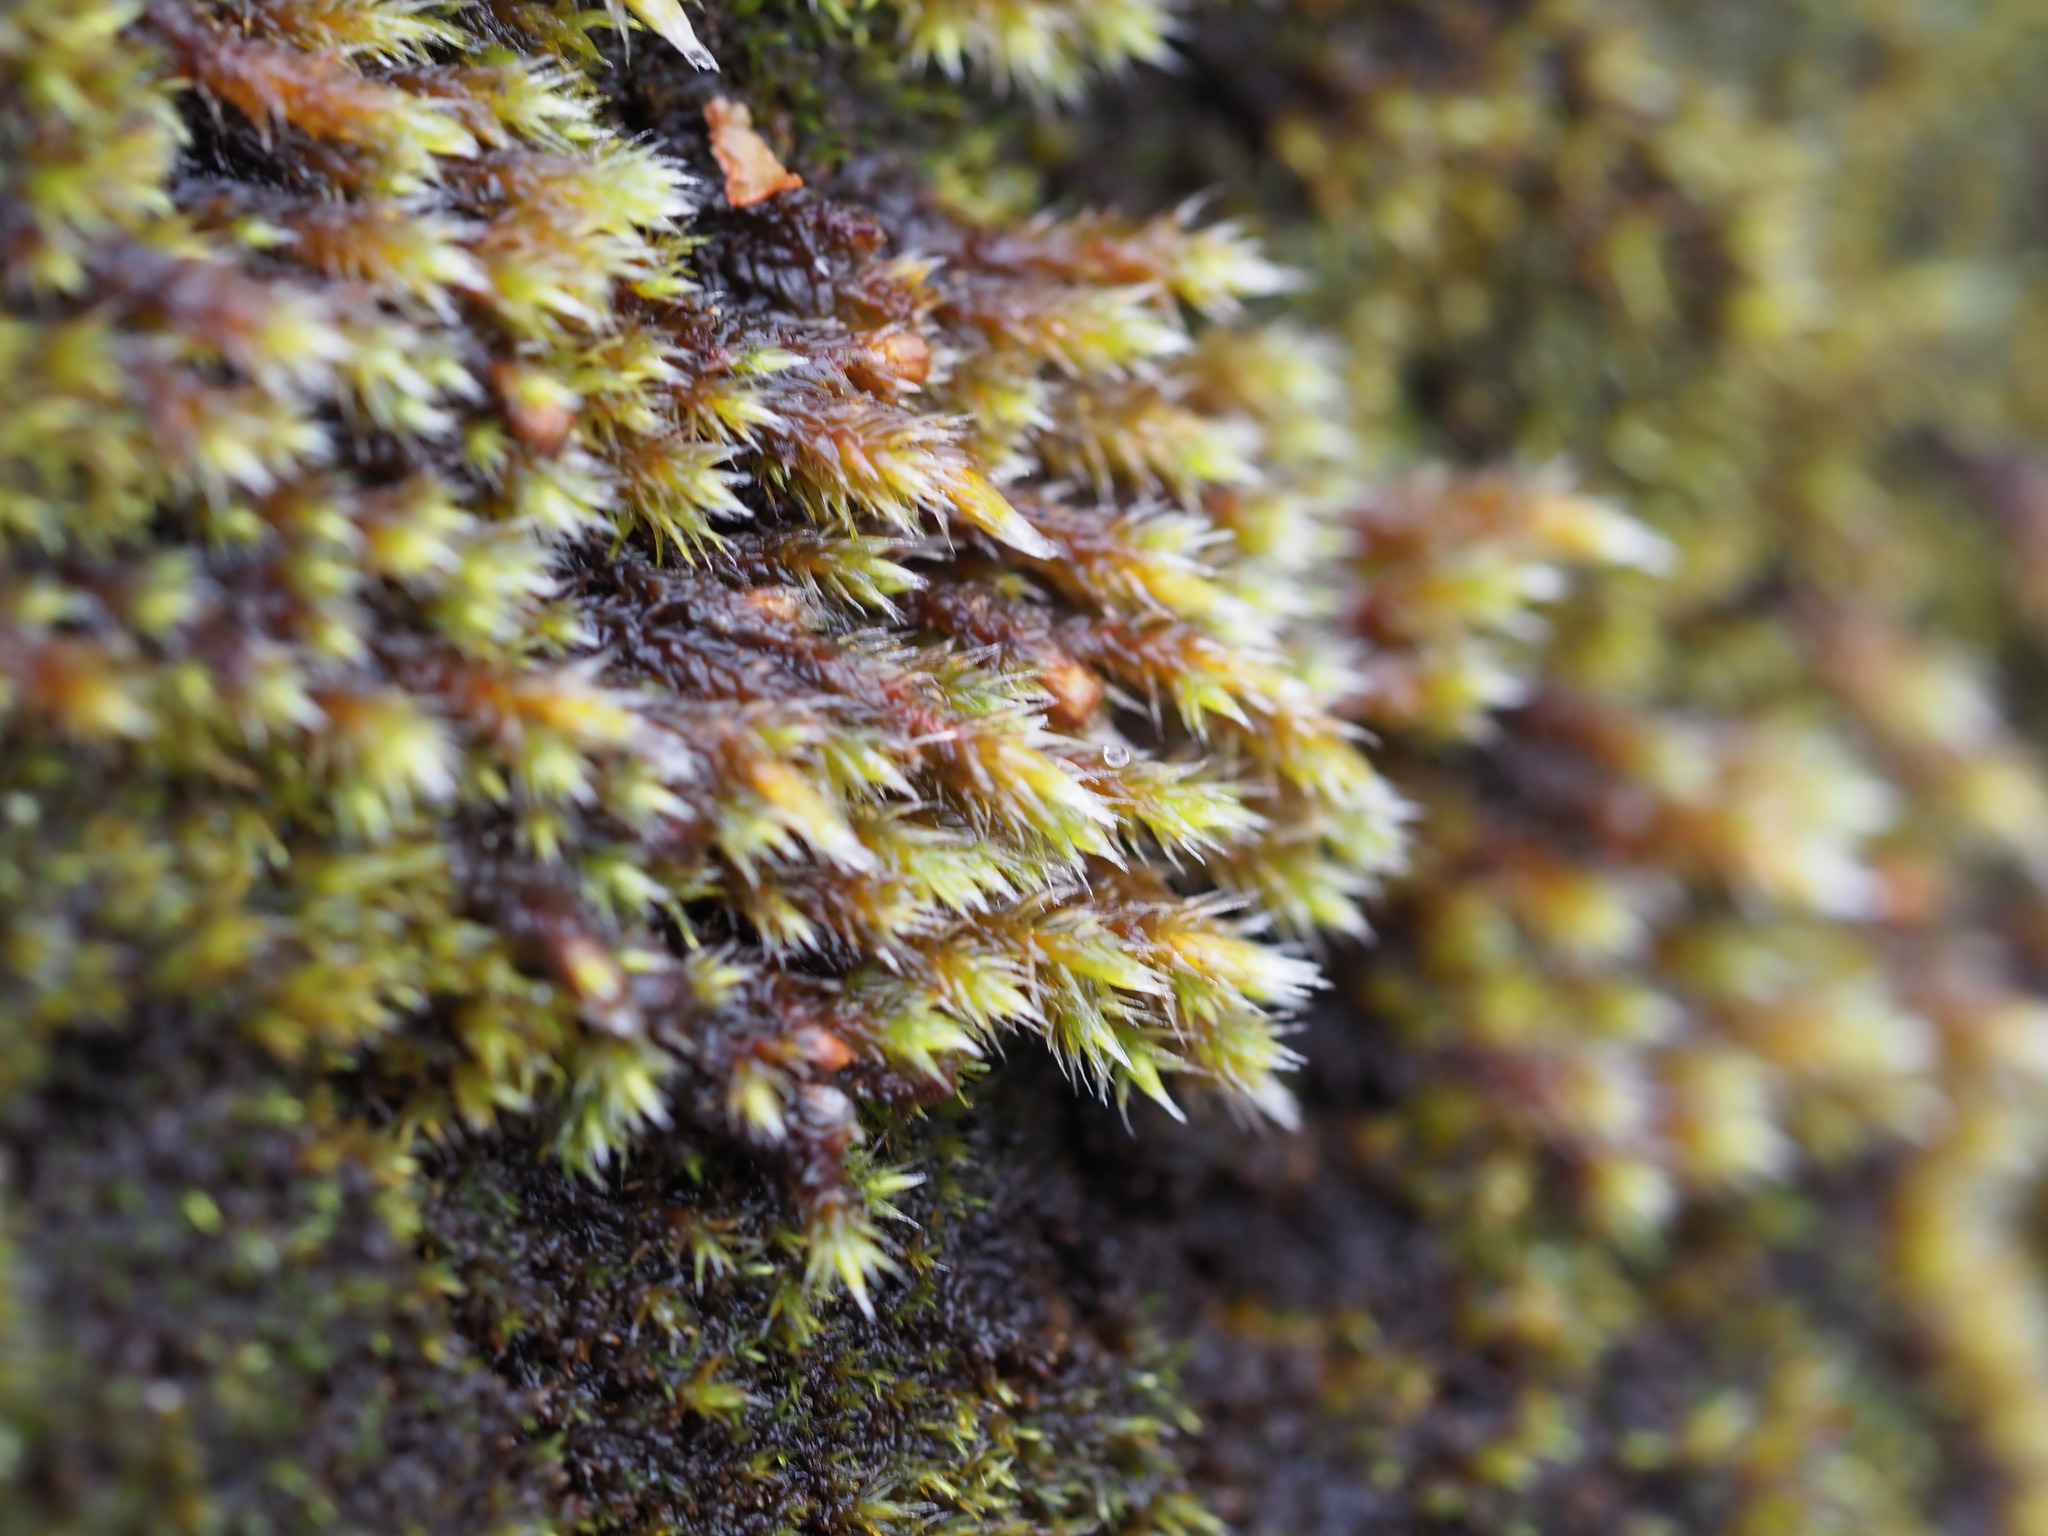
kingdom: Plantae
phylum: Bryophyta
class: Bryopsida
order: Hedwigiales
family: Hedwigiaceae
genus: Hedwigia
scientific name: Hedwigia stellata
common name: Starry hoar-moss
